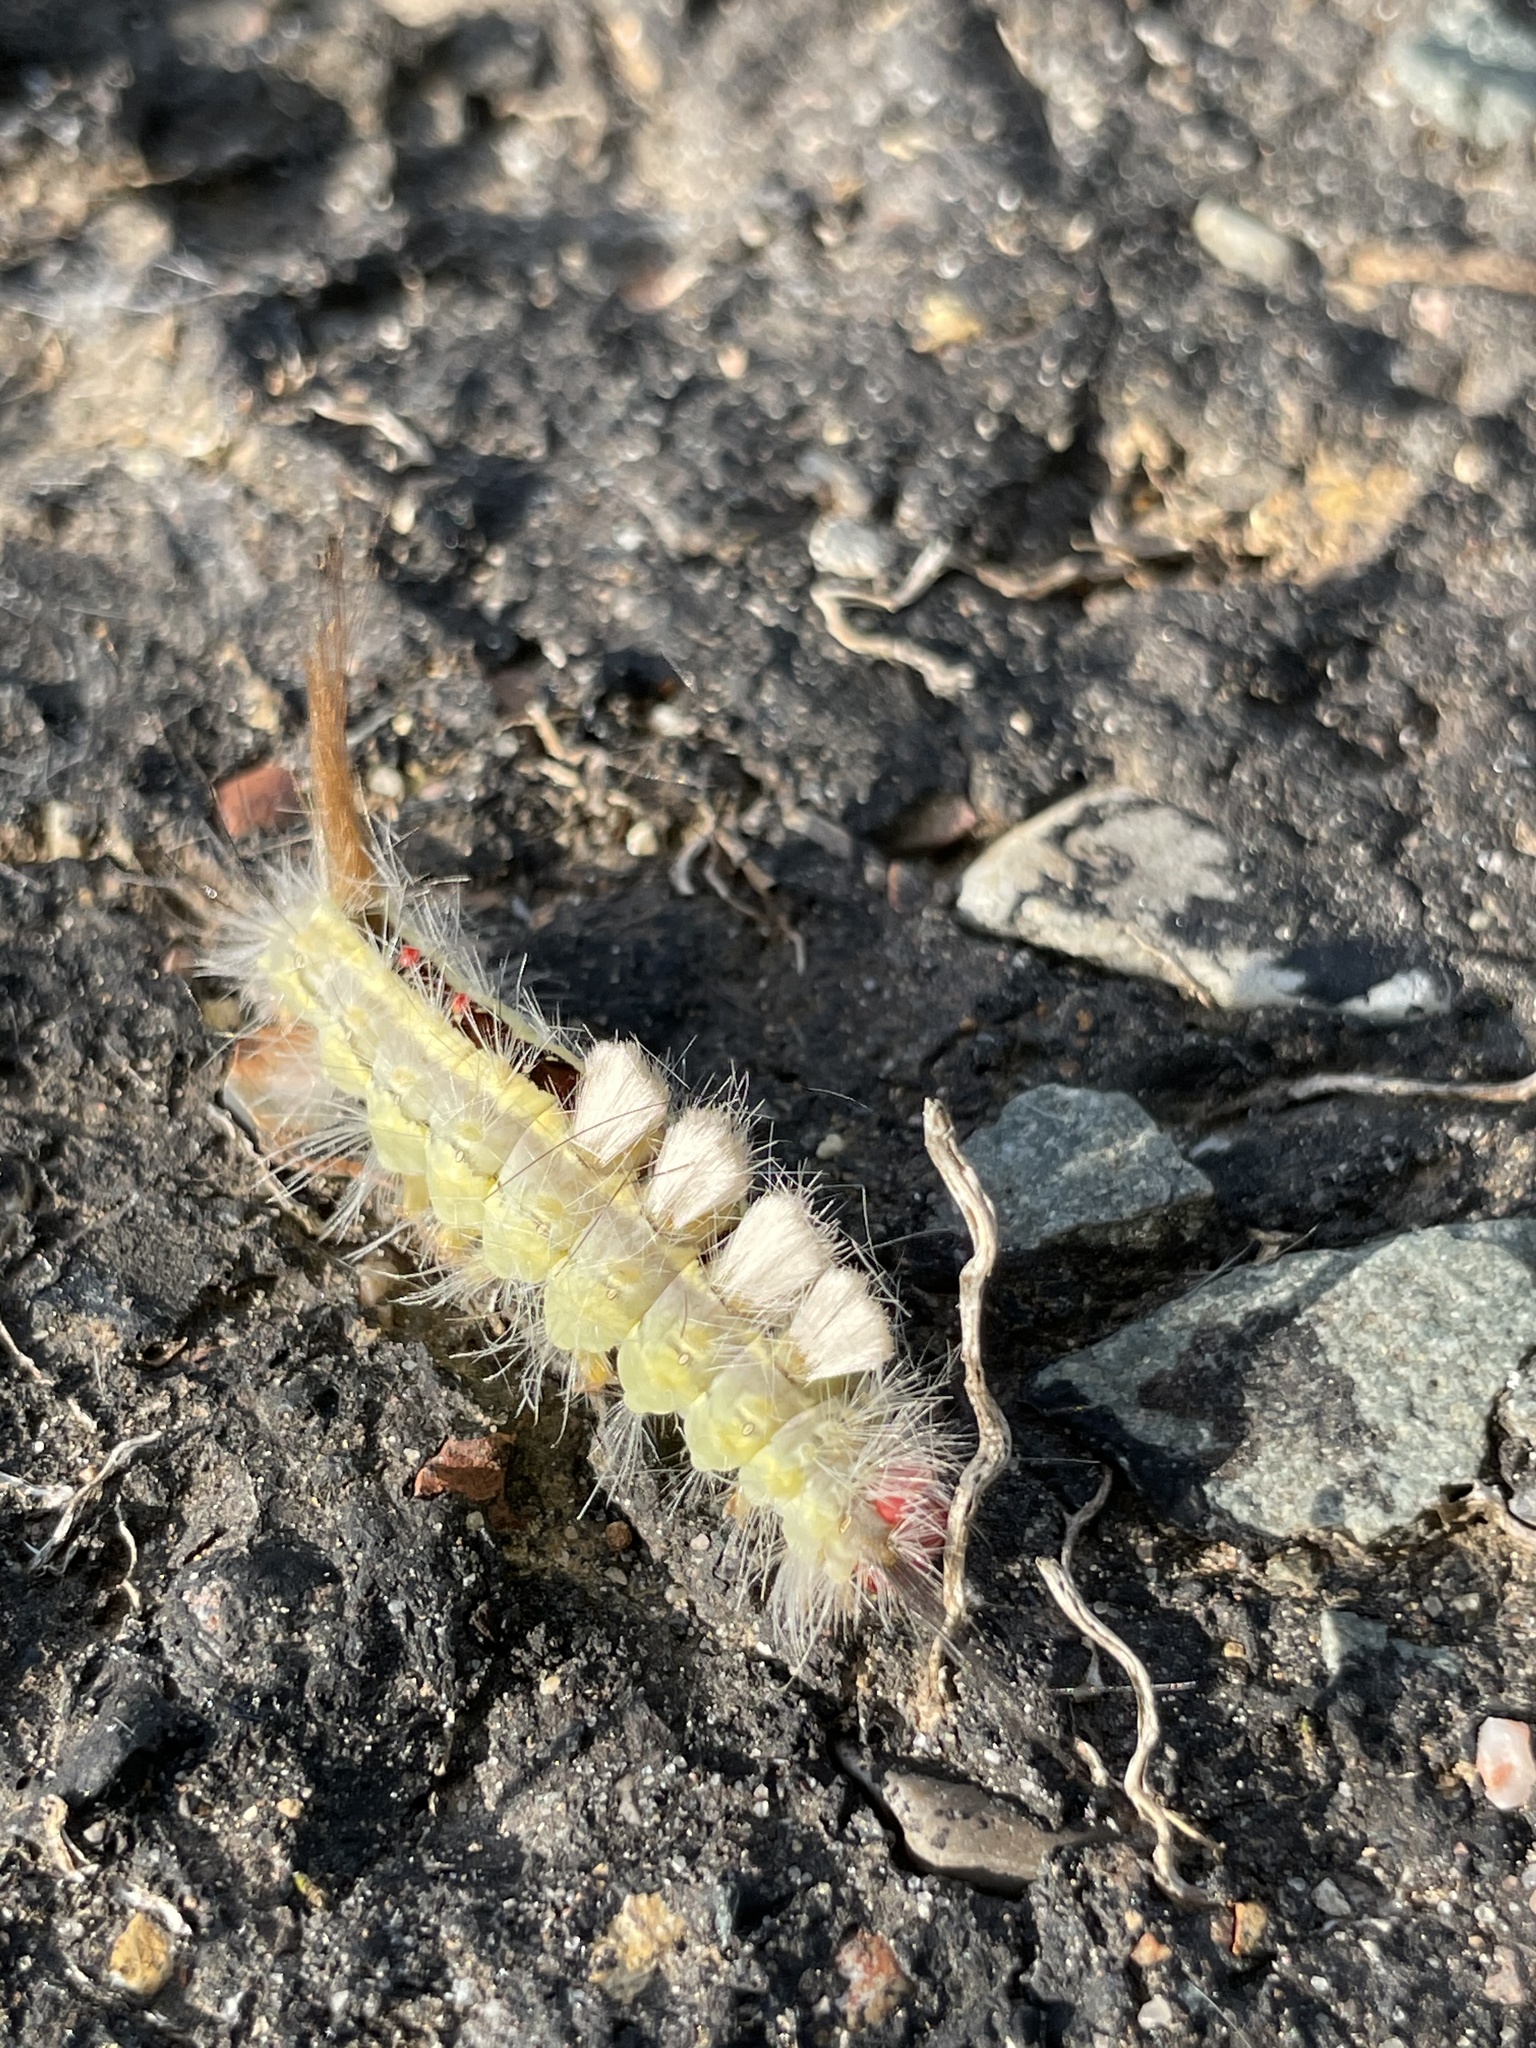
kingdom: Animalia
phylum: Arthropoda
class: Insecta
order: Lepidoptera
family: Erebidae
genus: Orgyia
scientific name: Orgyia leucostigma
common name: White-marked tussock moth
